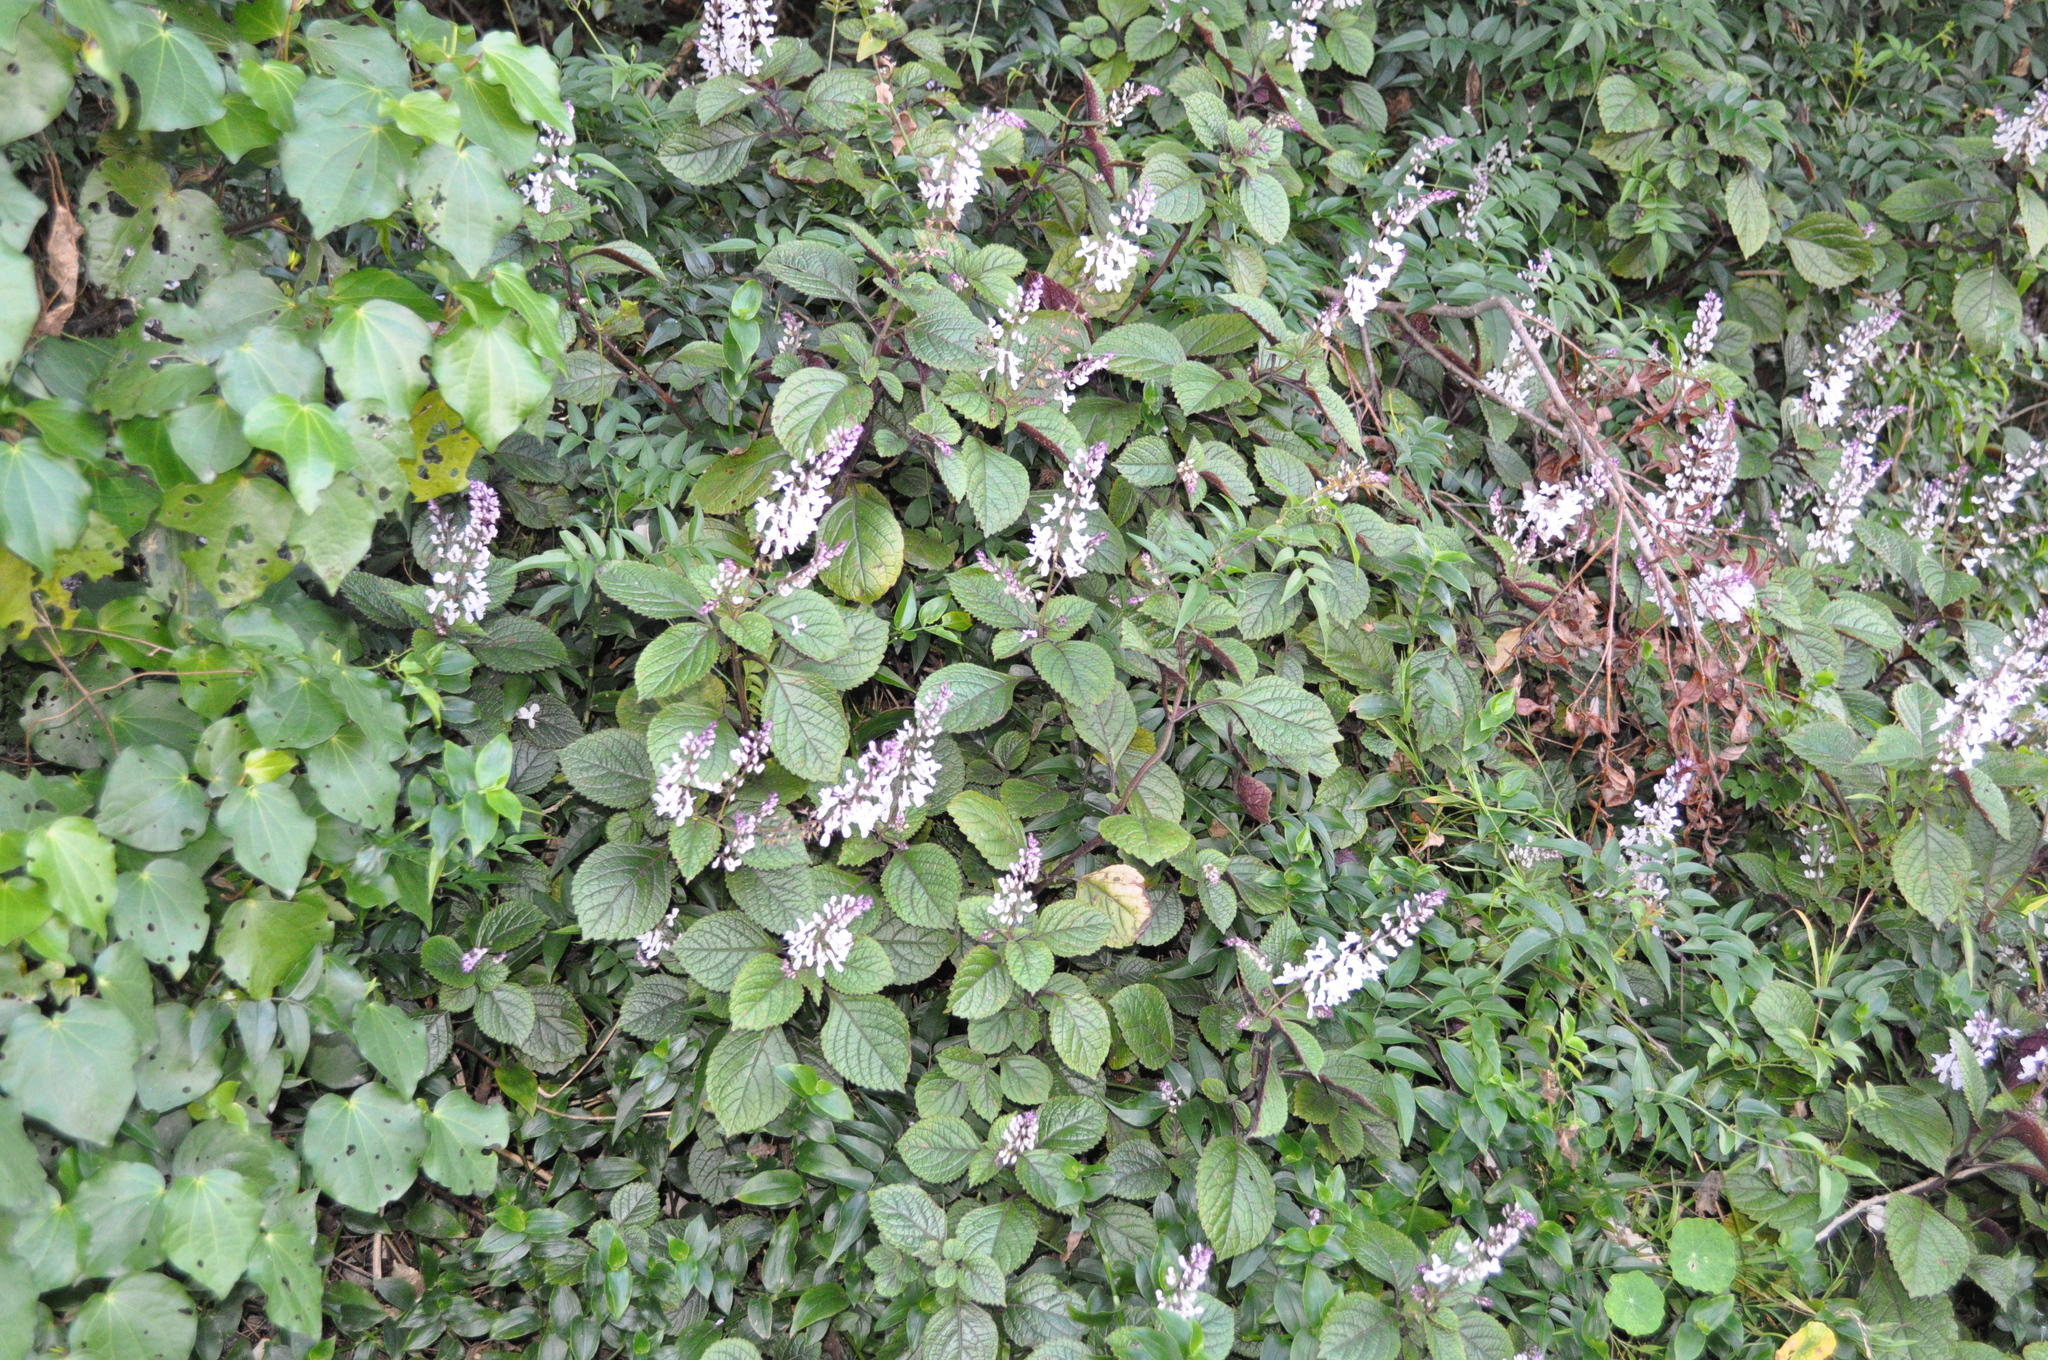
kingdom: Plantae
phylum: Tracheophyta
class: Magnoliopsida
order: Lamiales
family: Lamiaceae
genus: Plectranthus
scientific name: Plectranthus ciliatus
